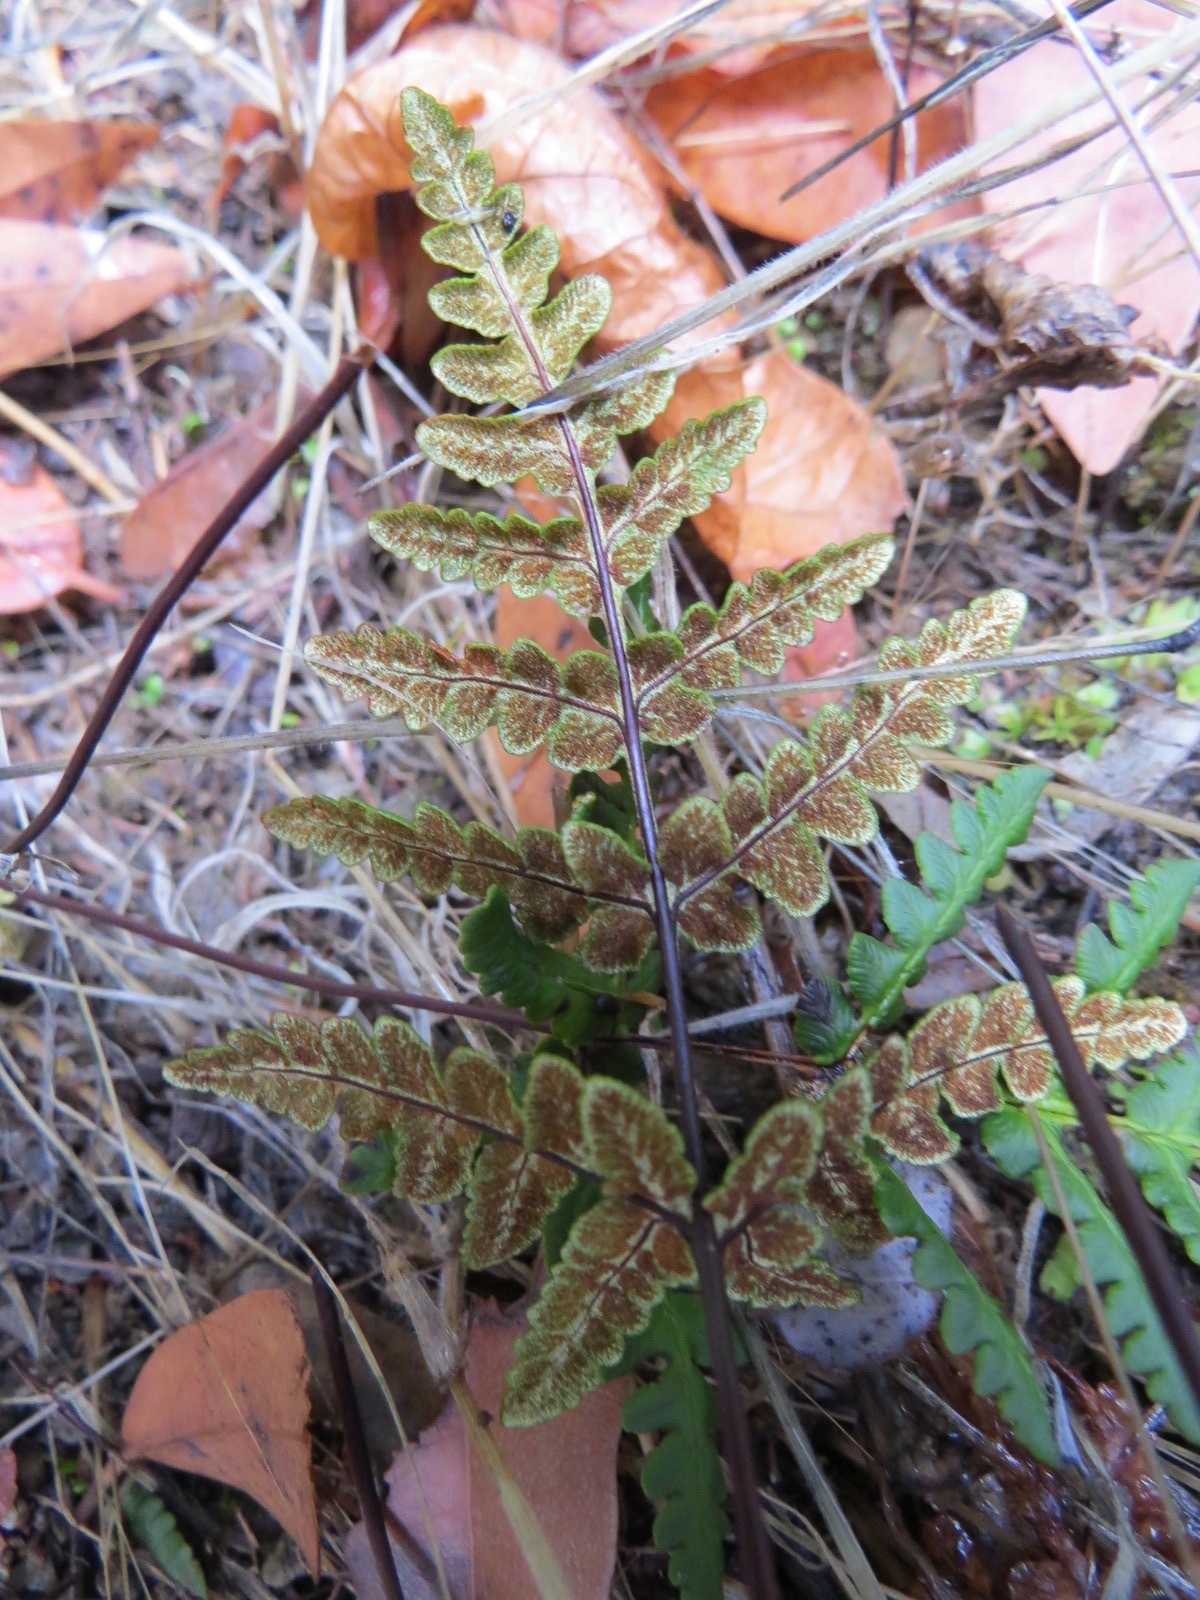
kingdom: Plantae
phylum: Tracheophyta
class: Polypodiopsida
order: Polypodiales
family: Pteridaceae
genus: Pentagramma
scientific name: Pentagramma triangularis
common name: Gold fern
